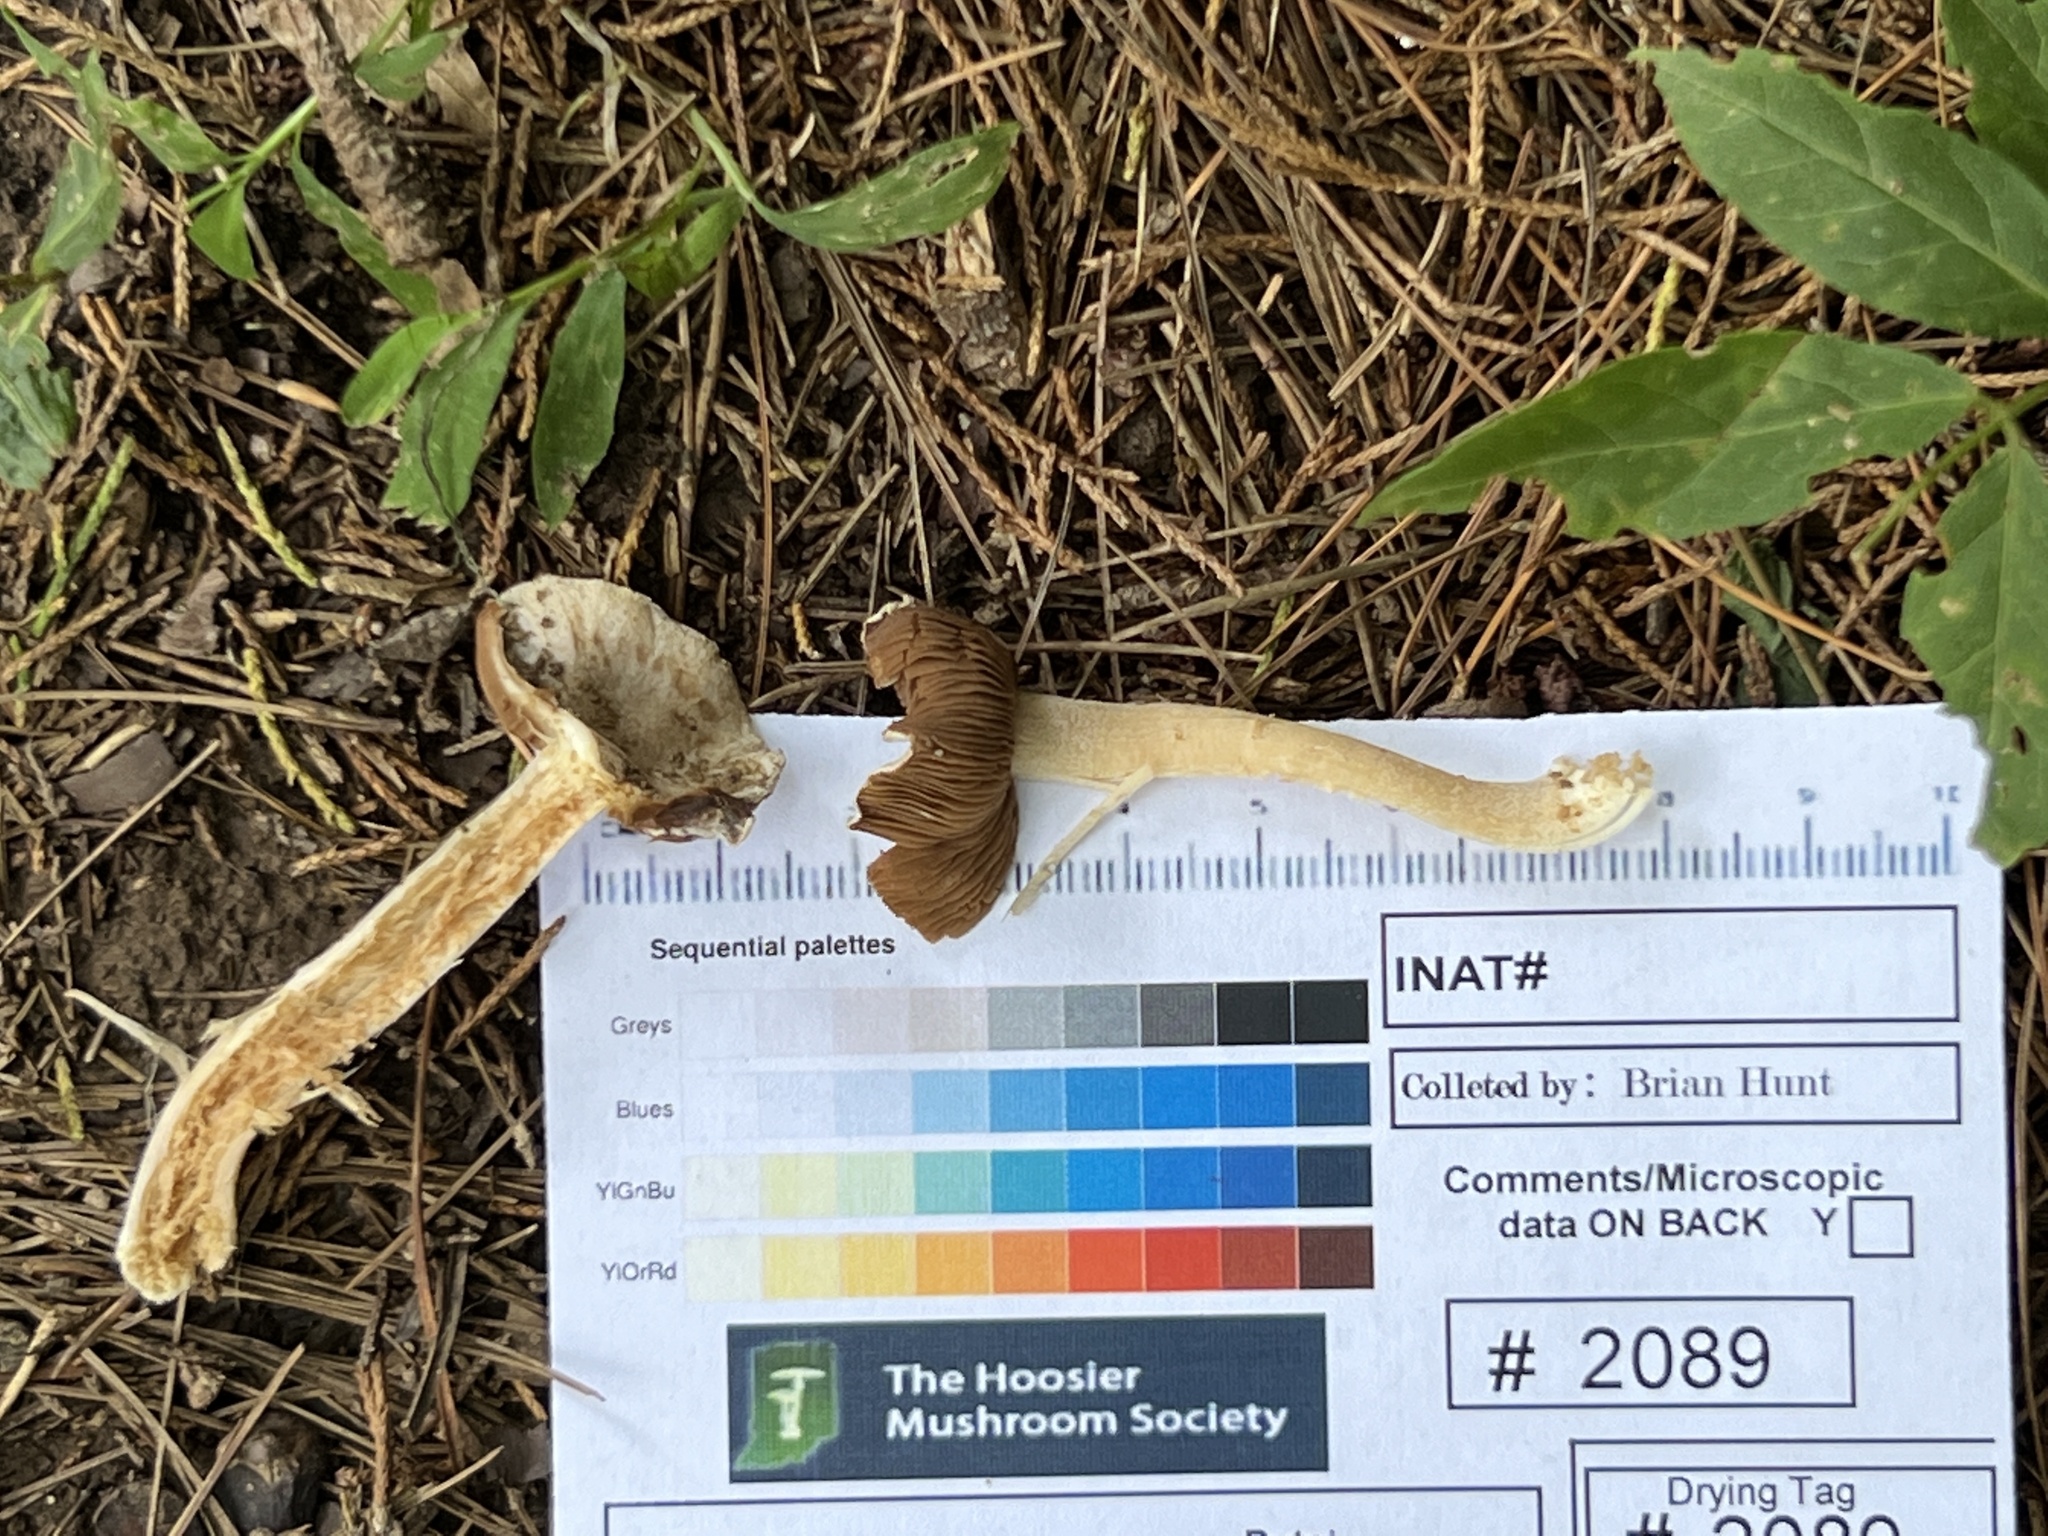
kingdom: Fungi
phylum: Basidiomycota
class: Agaricomycetes
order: Agaricales
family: Inocybaceae
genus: Inocybe
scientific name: Inocybe velicopia
